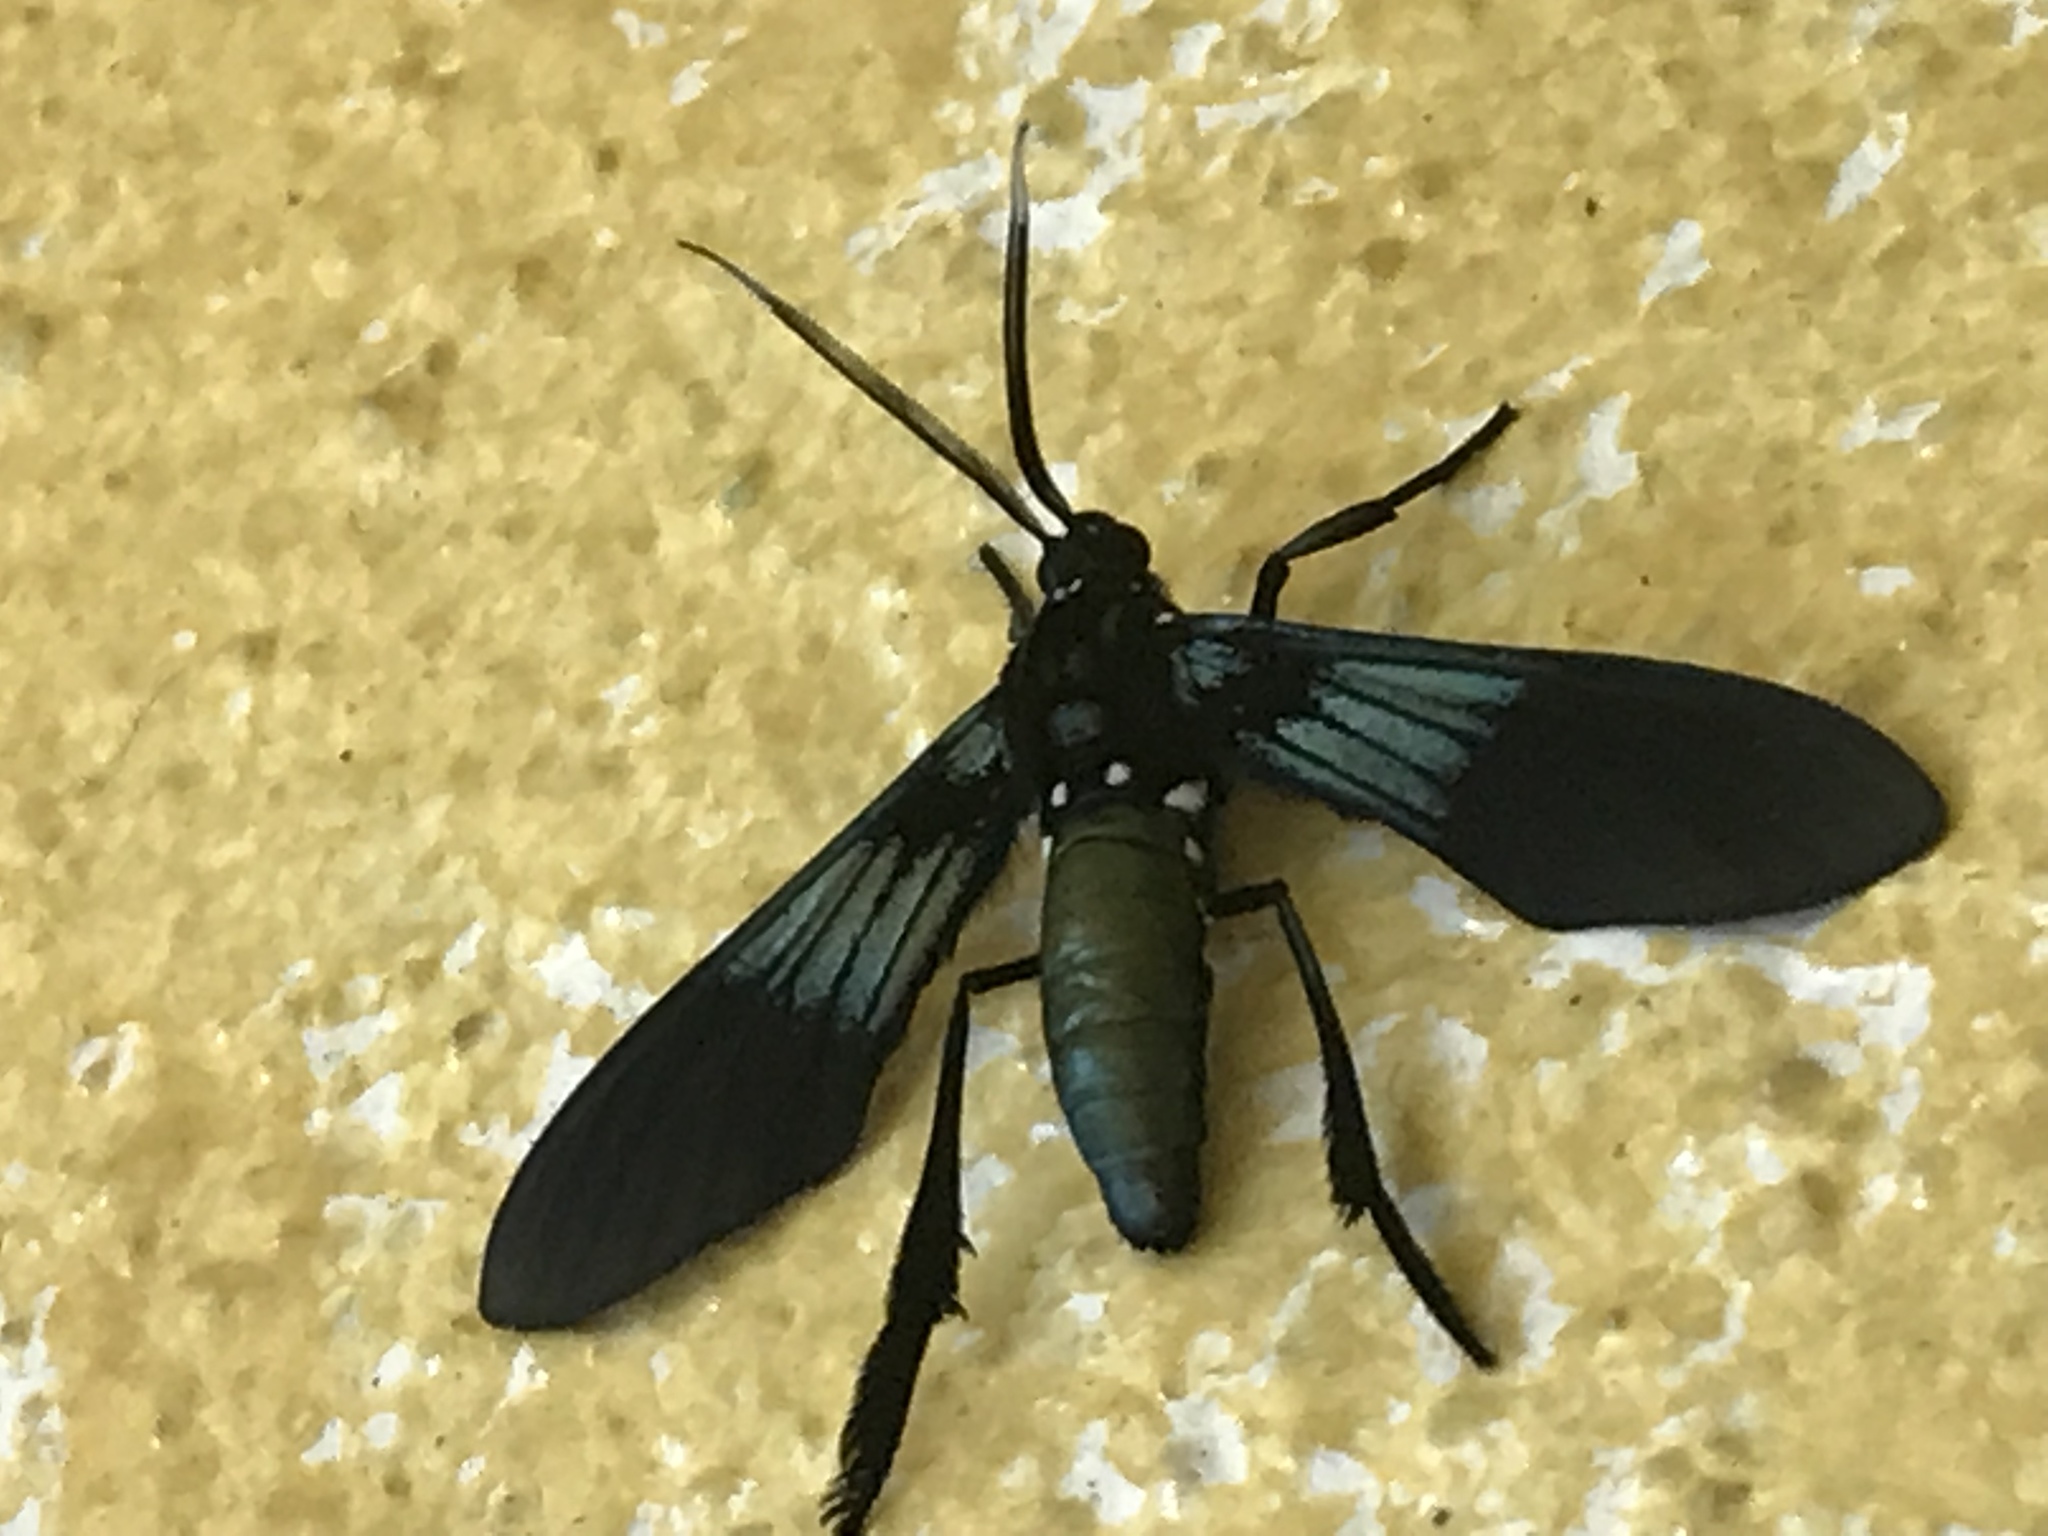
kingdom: Animalia
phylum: Arthropoda
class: Insecta
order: Lepidoptera
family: Erebidae
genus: Macrocneme
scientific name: Macrocneme chrysitis
